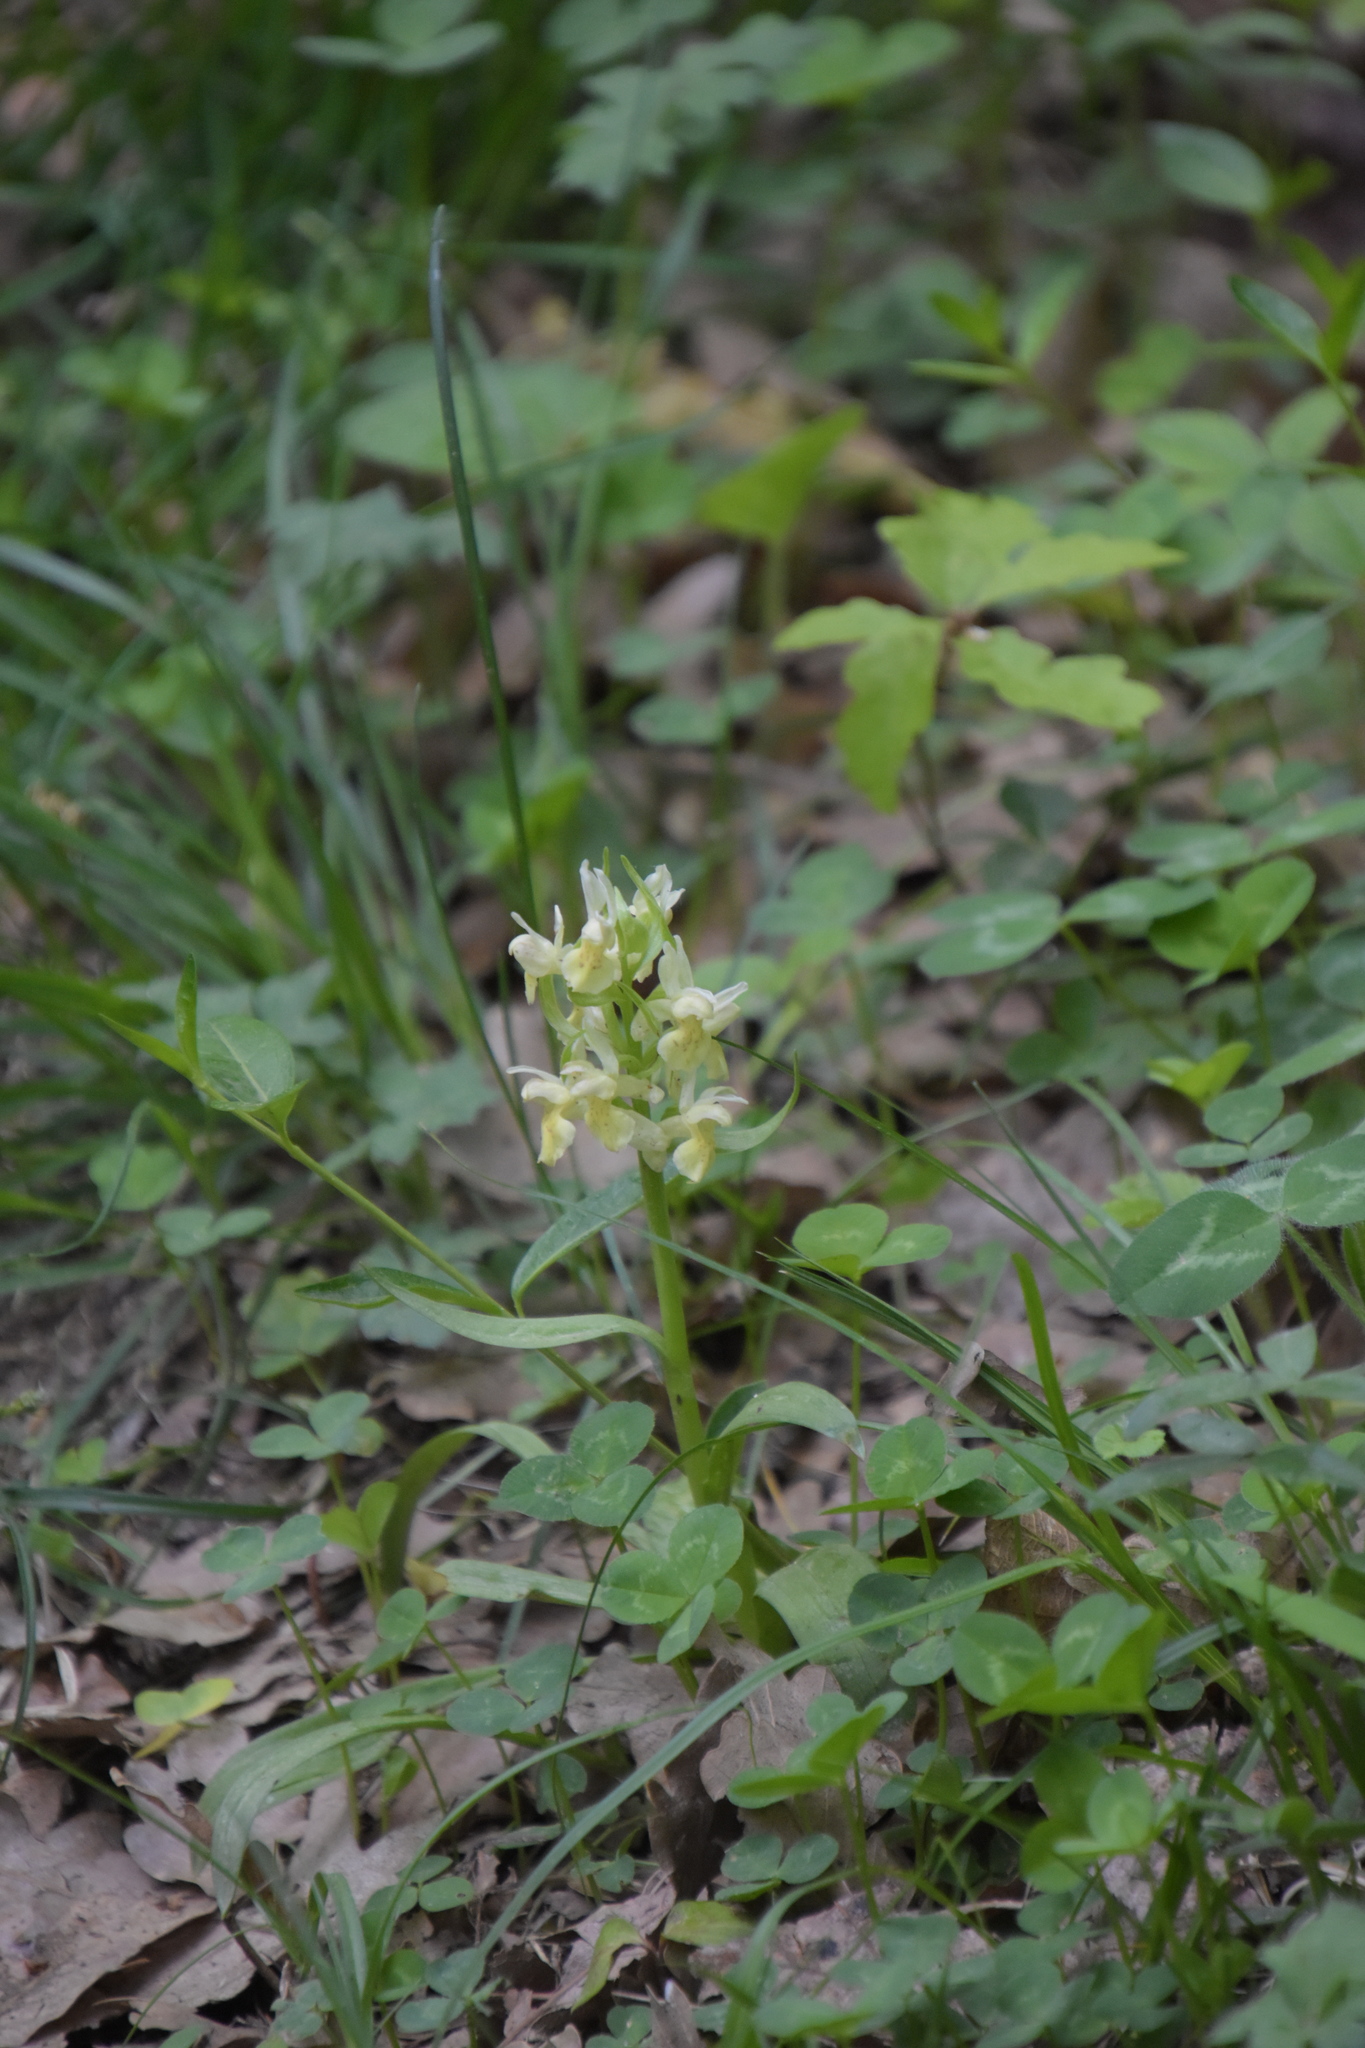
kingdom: Plantae
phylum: Tracheophyta
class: Liliopsida
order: Asparagales
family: Orchidaceae
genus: Dactylorhiza
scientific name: Dactylorhiza sambucina
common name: Elder-flowered orchid
